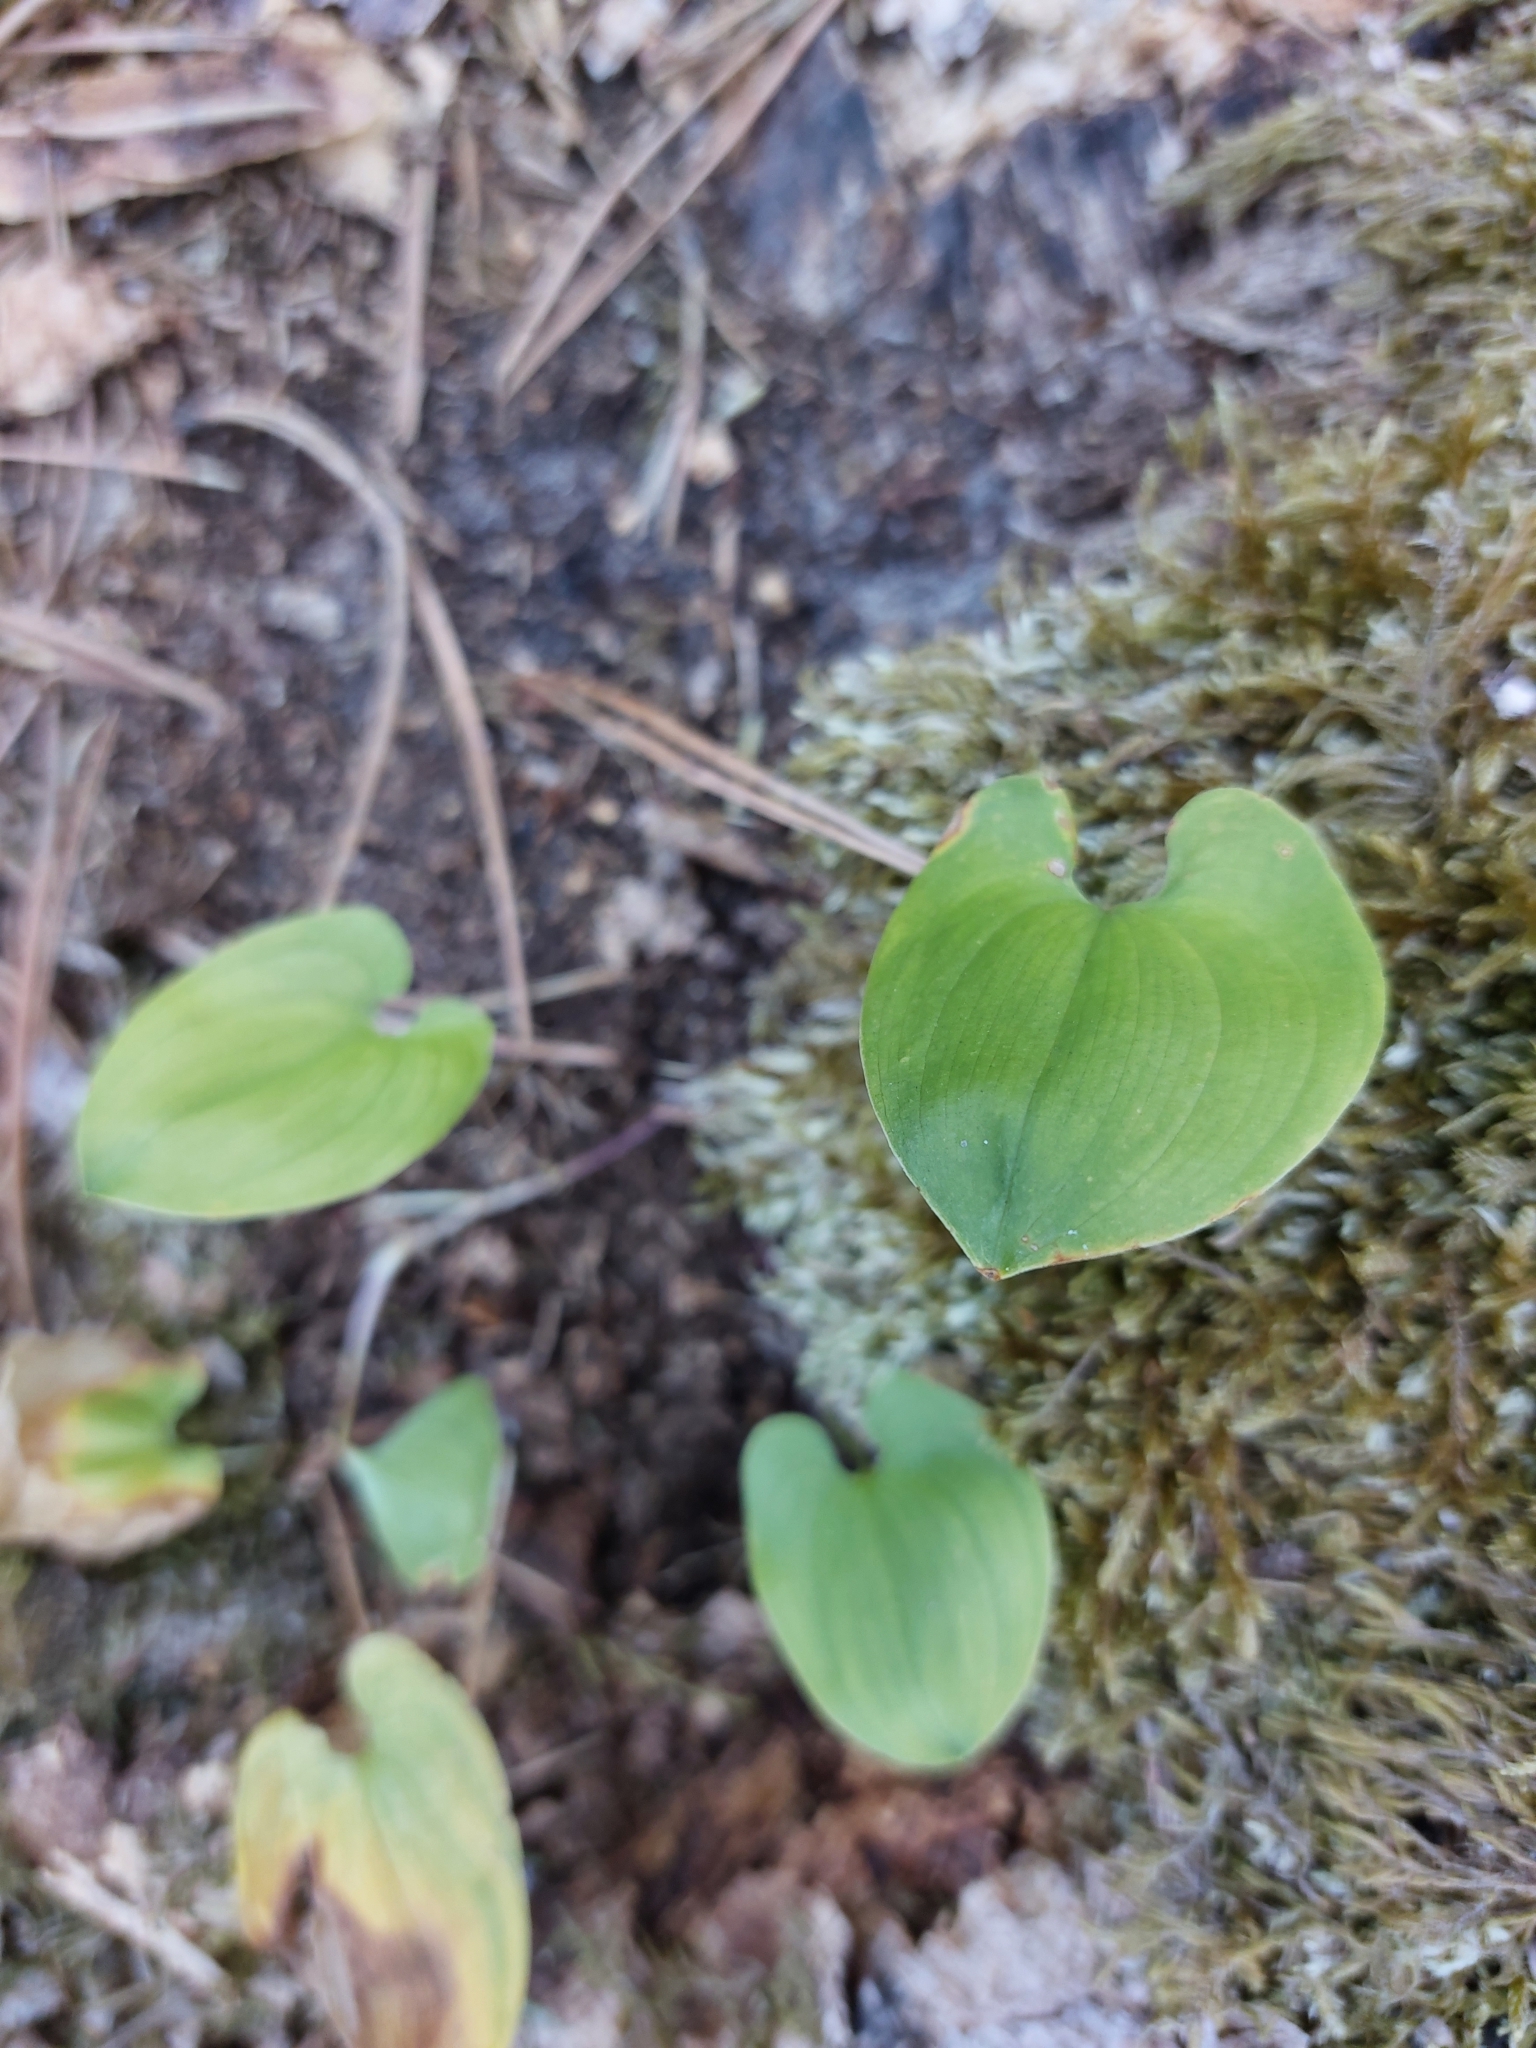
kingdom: Plantae
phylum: Tracheophyta
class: Liliopsida
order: Asparagales
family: Asparagaceae
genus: Maianthemum
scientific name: Maianthemum bifolium
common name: May lily
